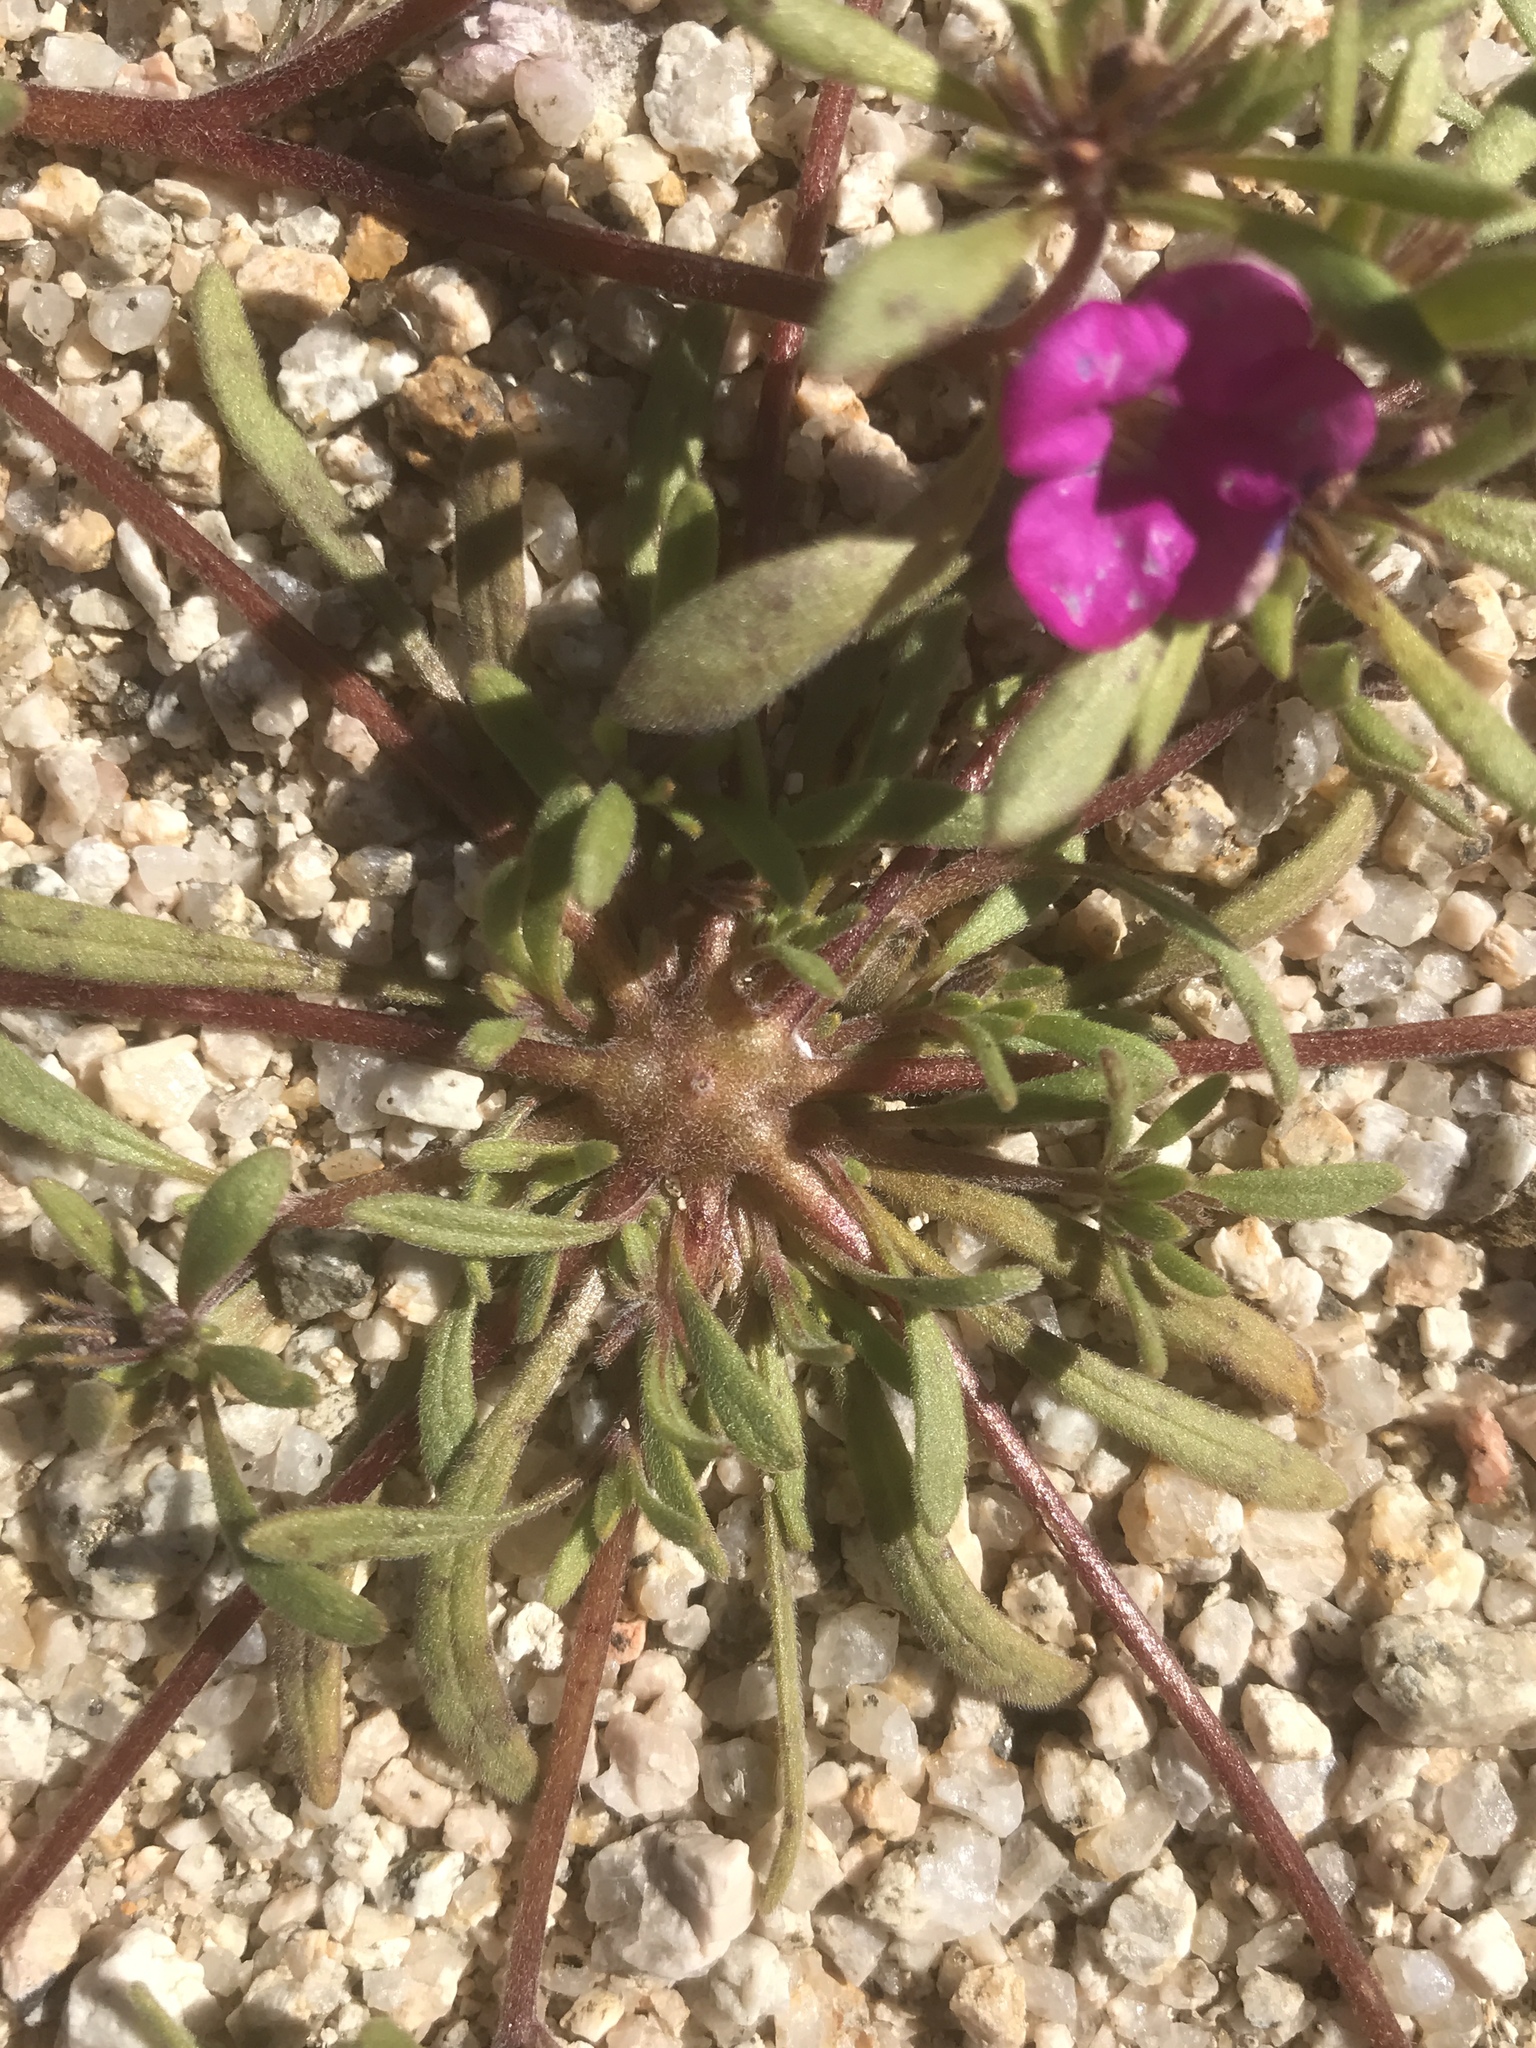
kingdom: Plantae
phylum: Tracheophyta
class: Magnoliopsida
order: Boraginales
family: Namaceae
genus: Nama
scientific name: Nama demissa
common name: Leafy nama
